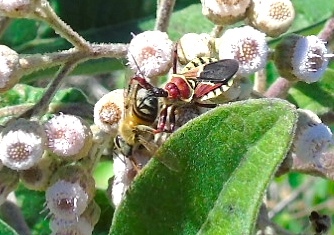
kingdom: Animalia
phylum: Arthropoda
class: Insecta
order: Hemiptera
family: Reduviidae
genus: Apiomerus
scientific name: Apiomerus flaviventris
